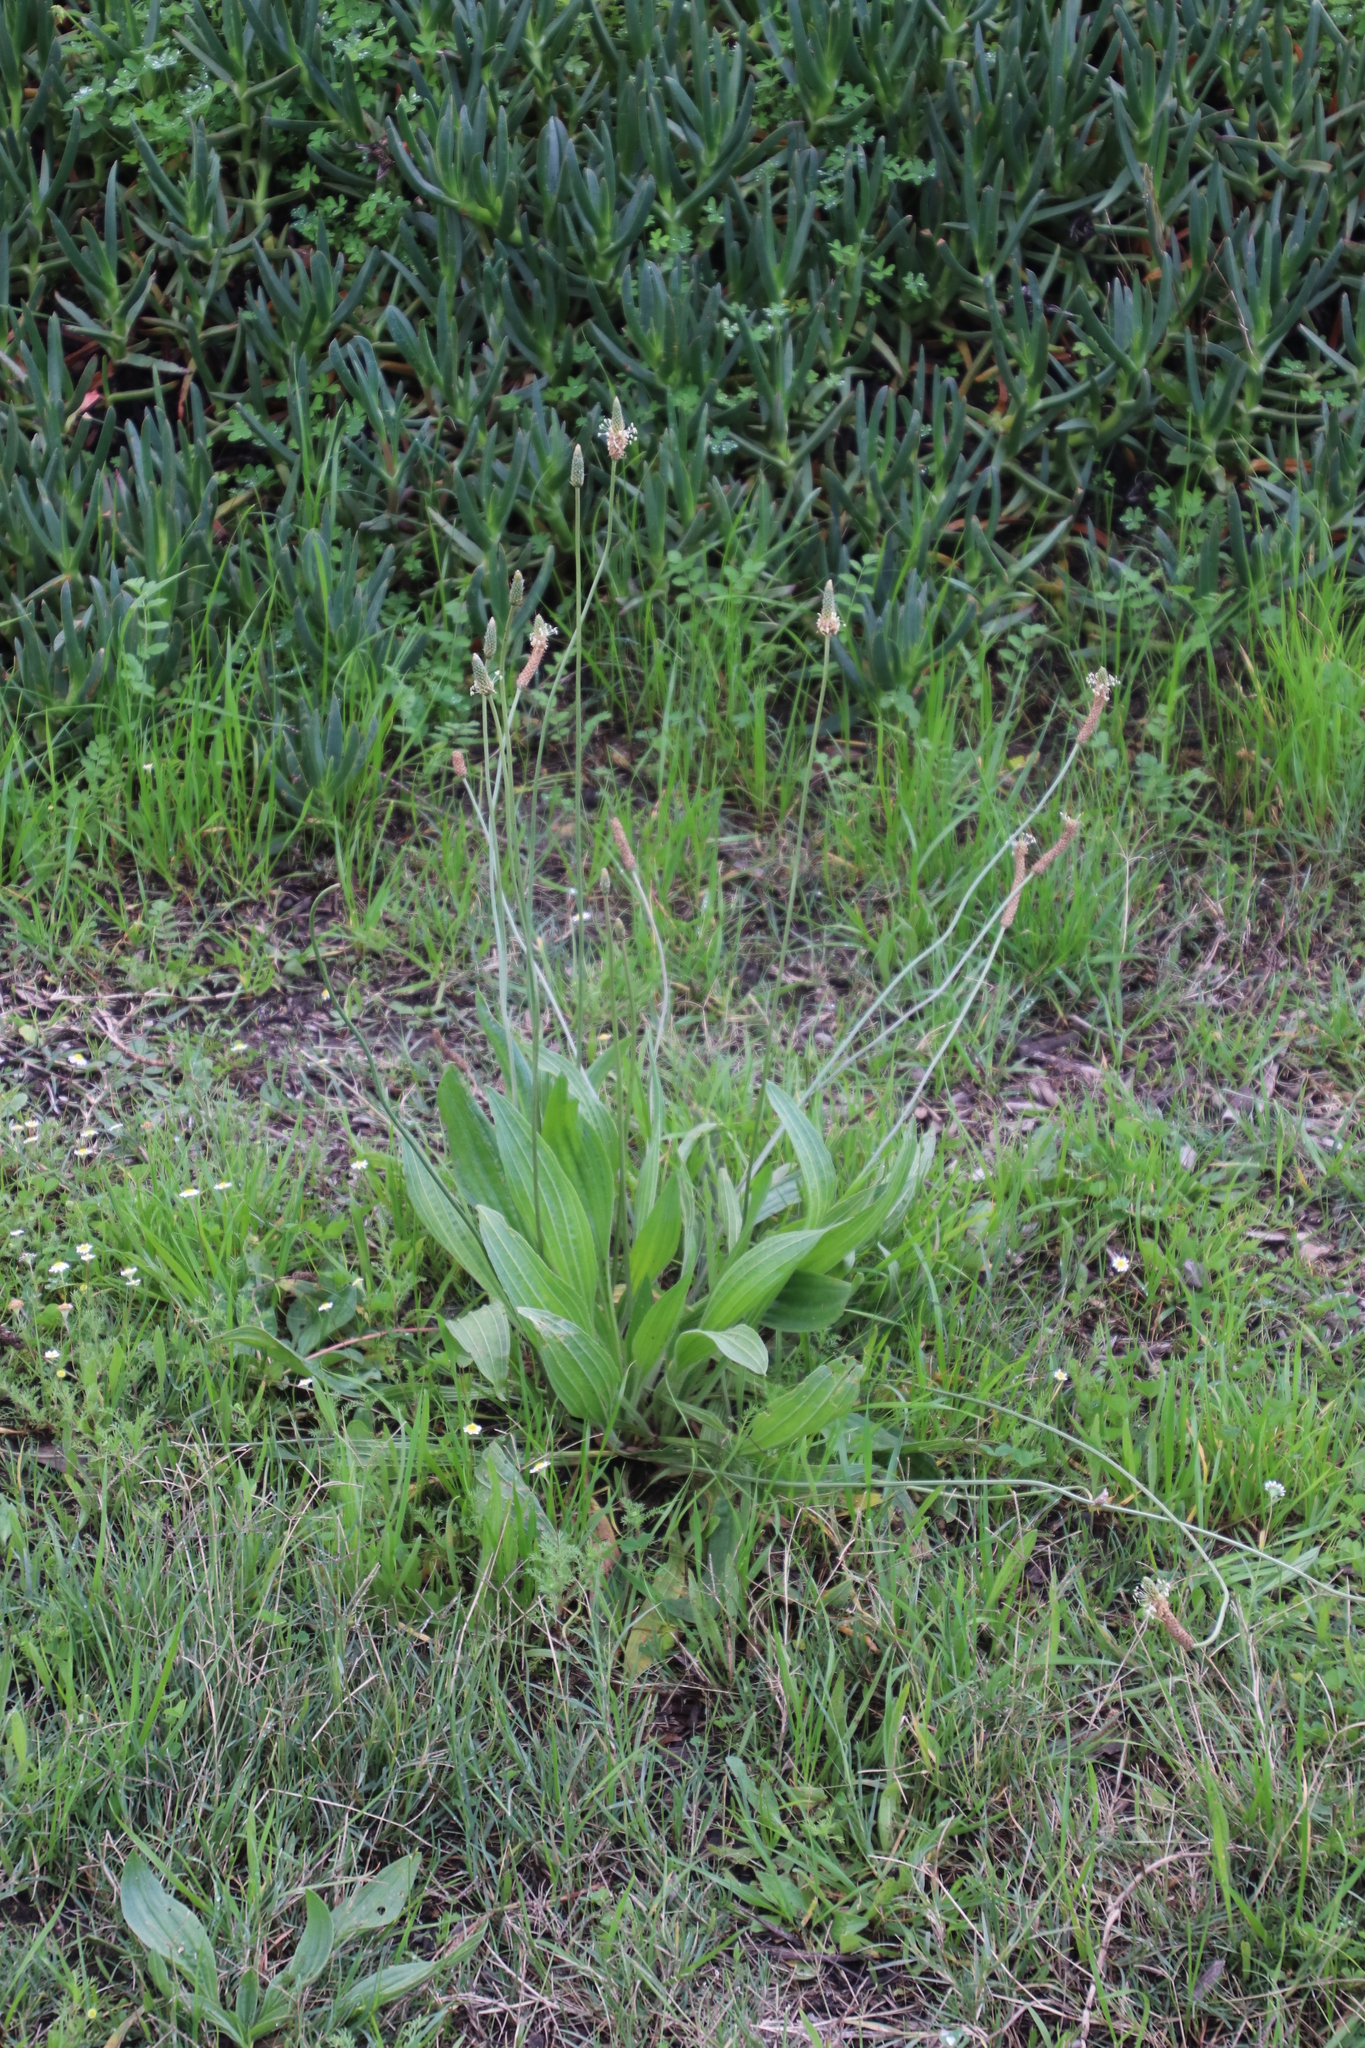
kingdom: Plantae
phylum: Tracheophyta
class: Magnoliopsida
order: Lamiales
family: Plantaginaceae
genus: Plantago
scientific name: Plantago lanceolata
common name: Ribwort plantain
